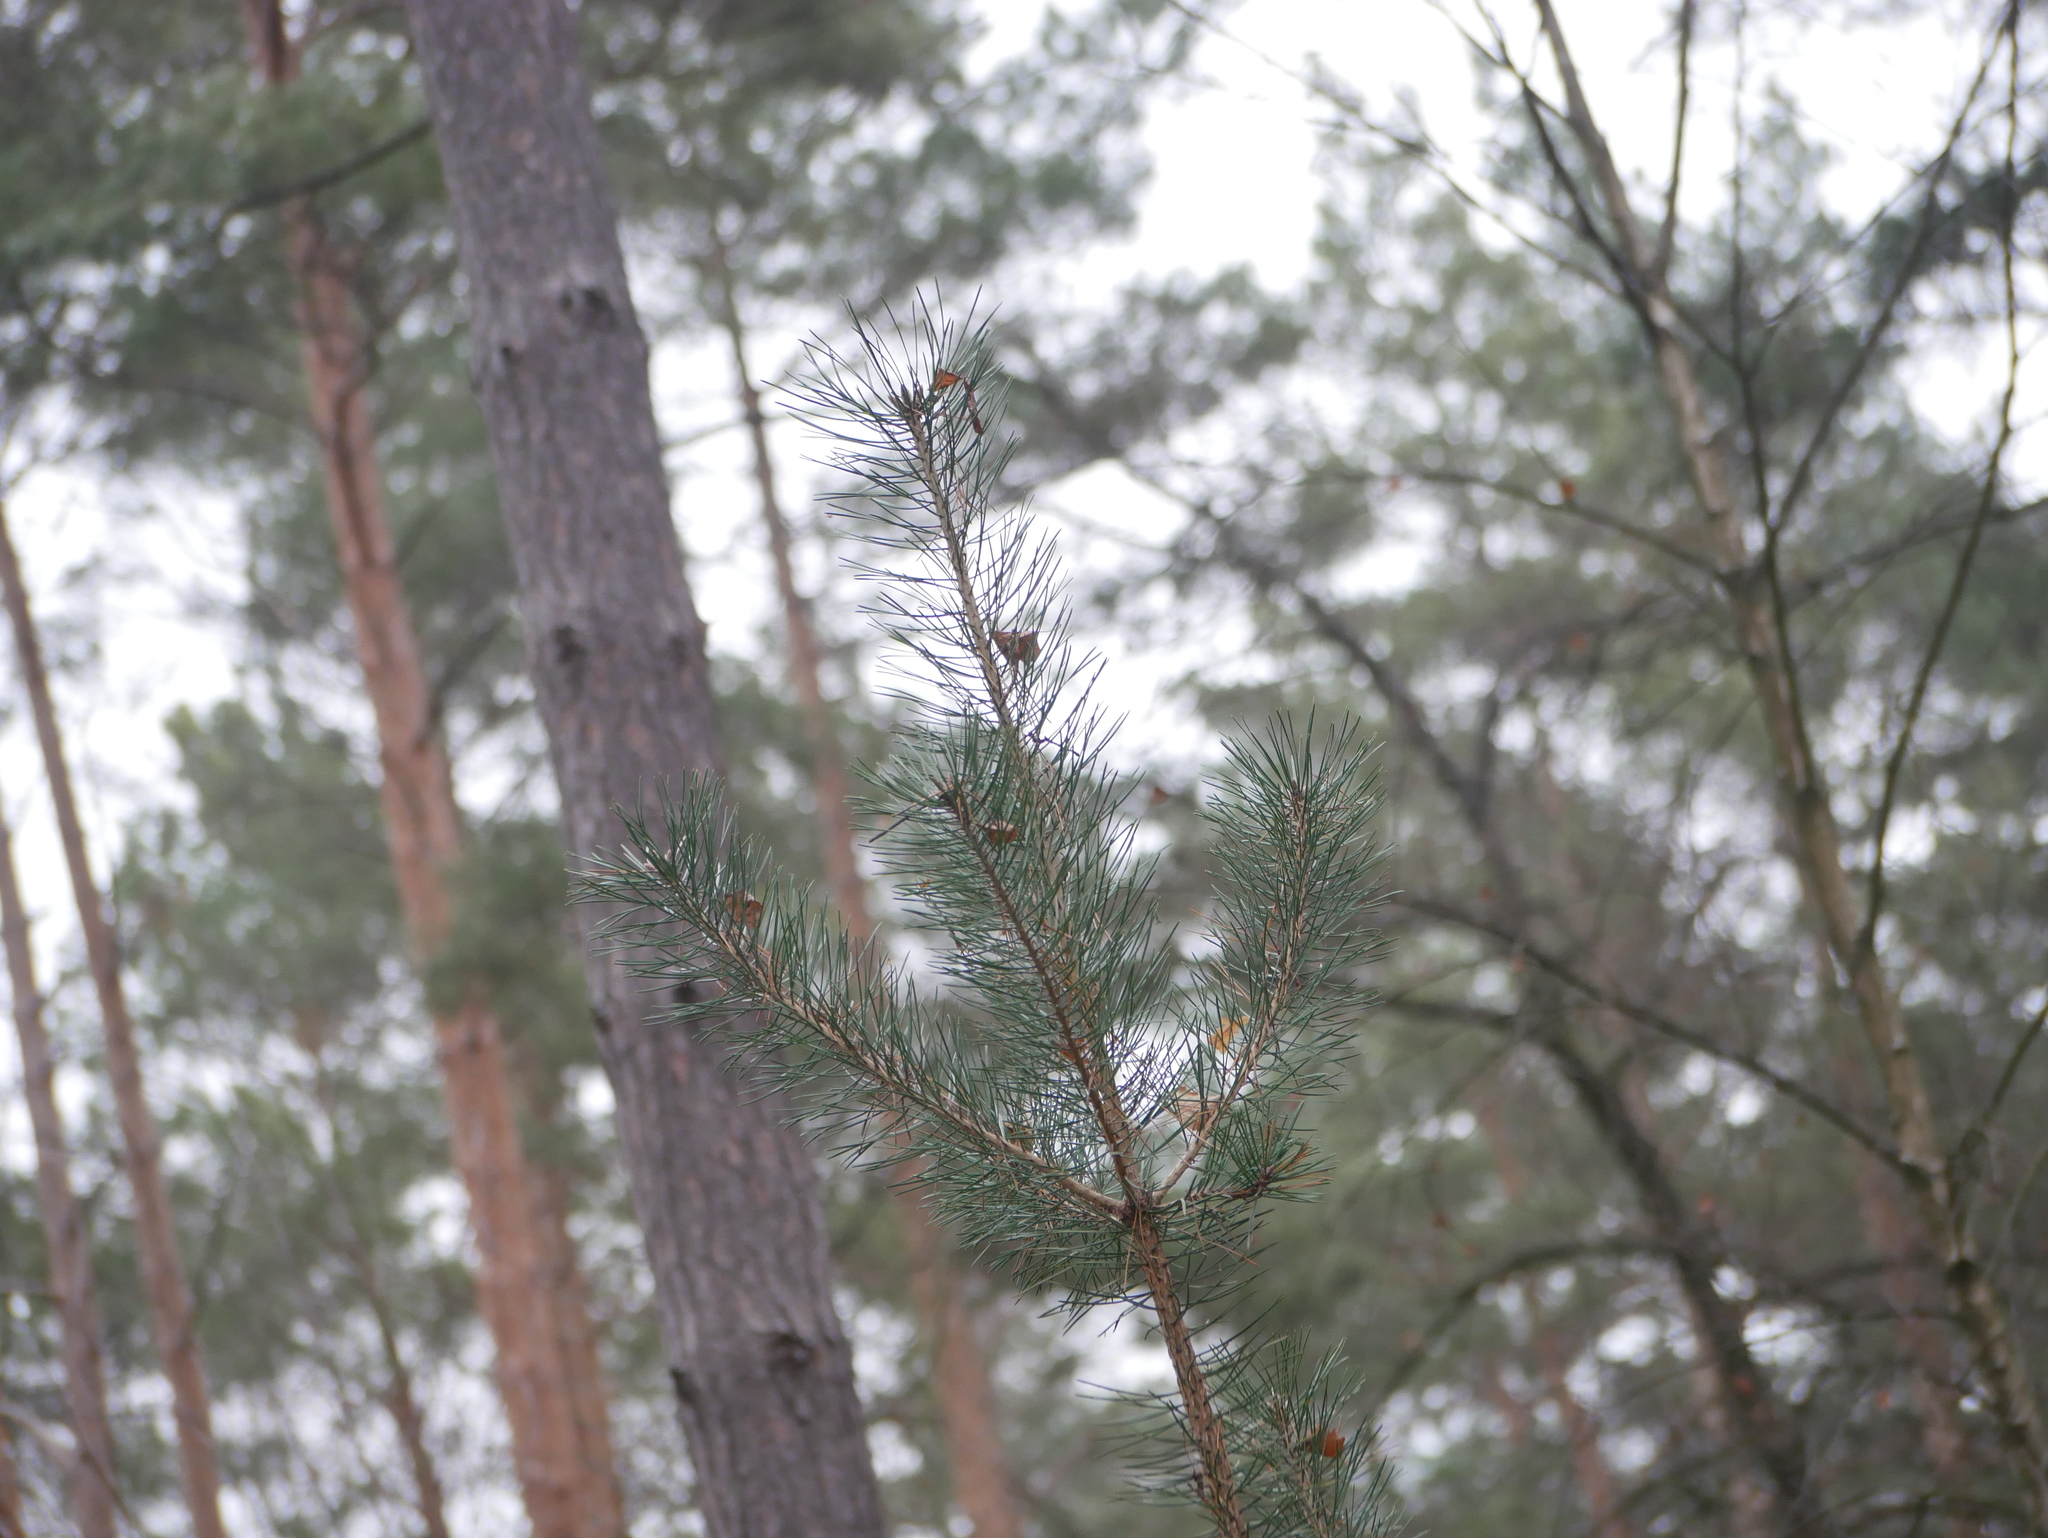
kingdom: Plantae
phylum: Tracheophyta
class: Pinopsida
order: Pinales
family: Pinaceae
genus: Pinus
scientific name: Pinus sylvestris
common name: Scots pine
